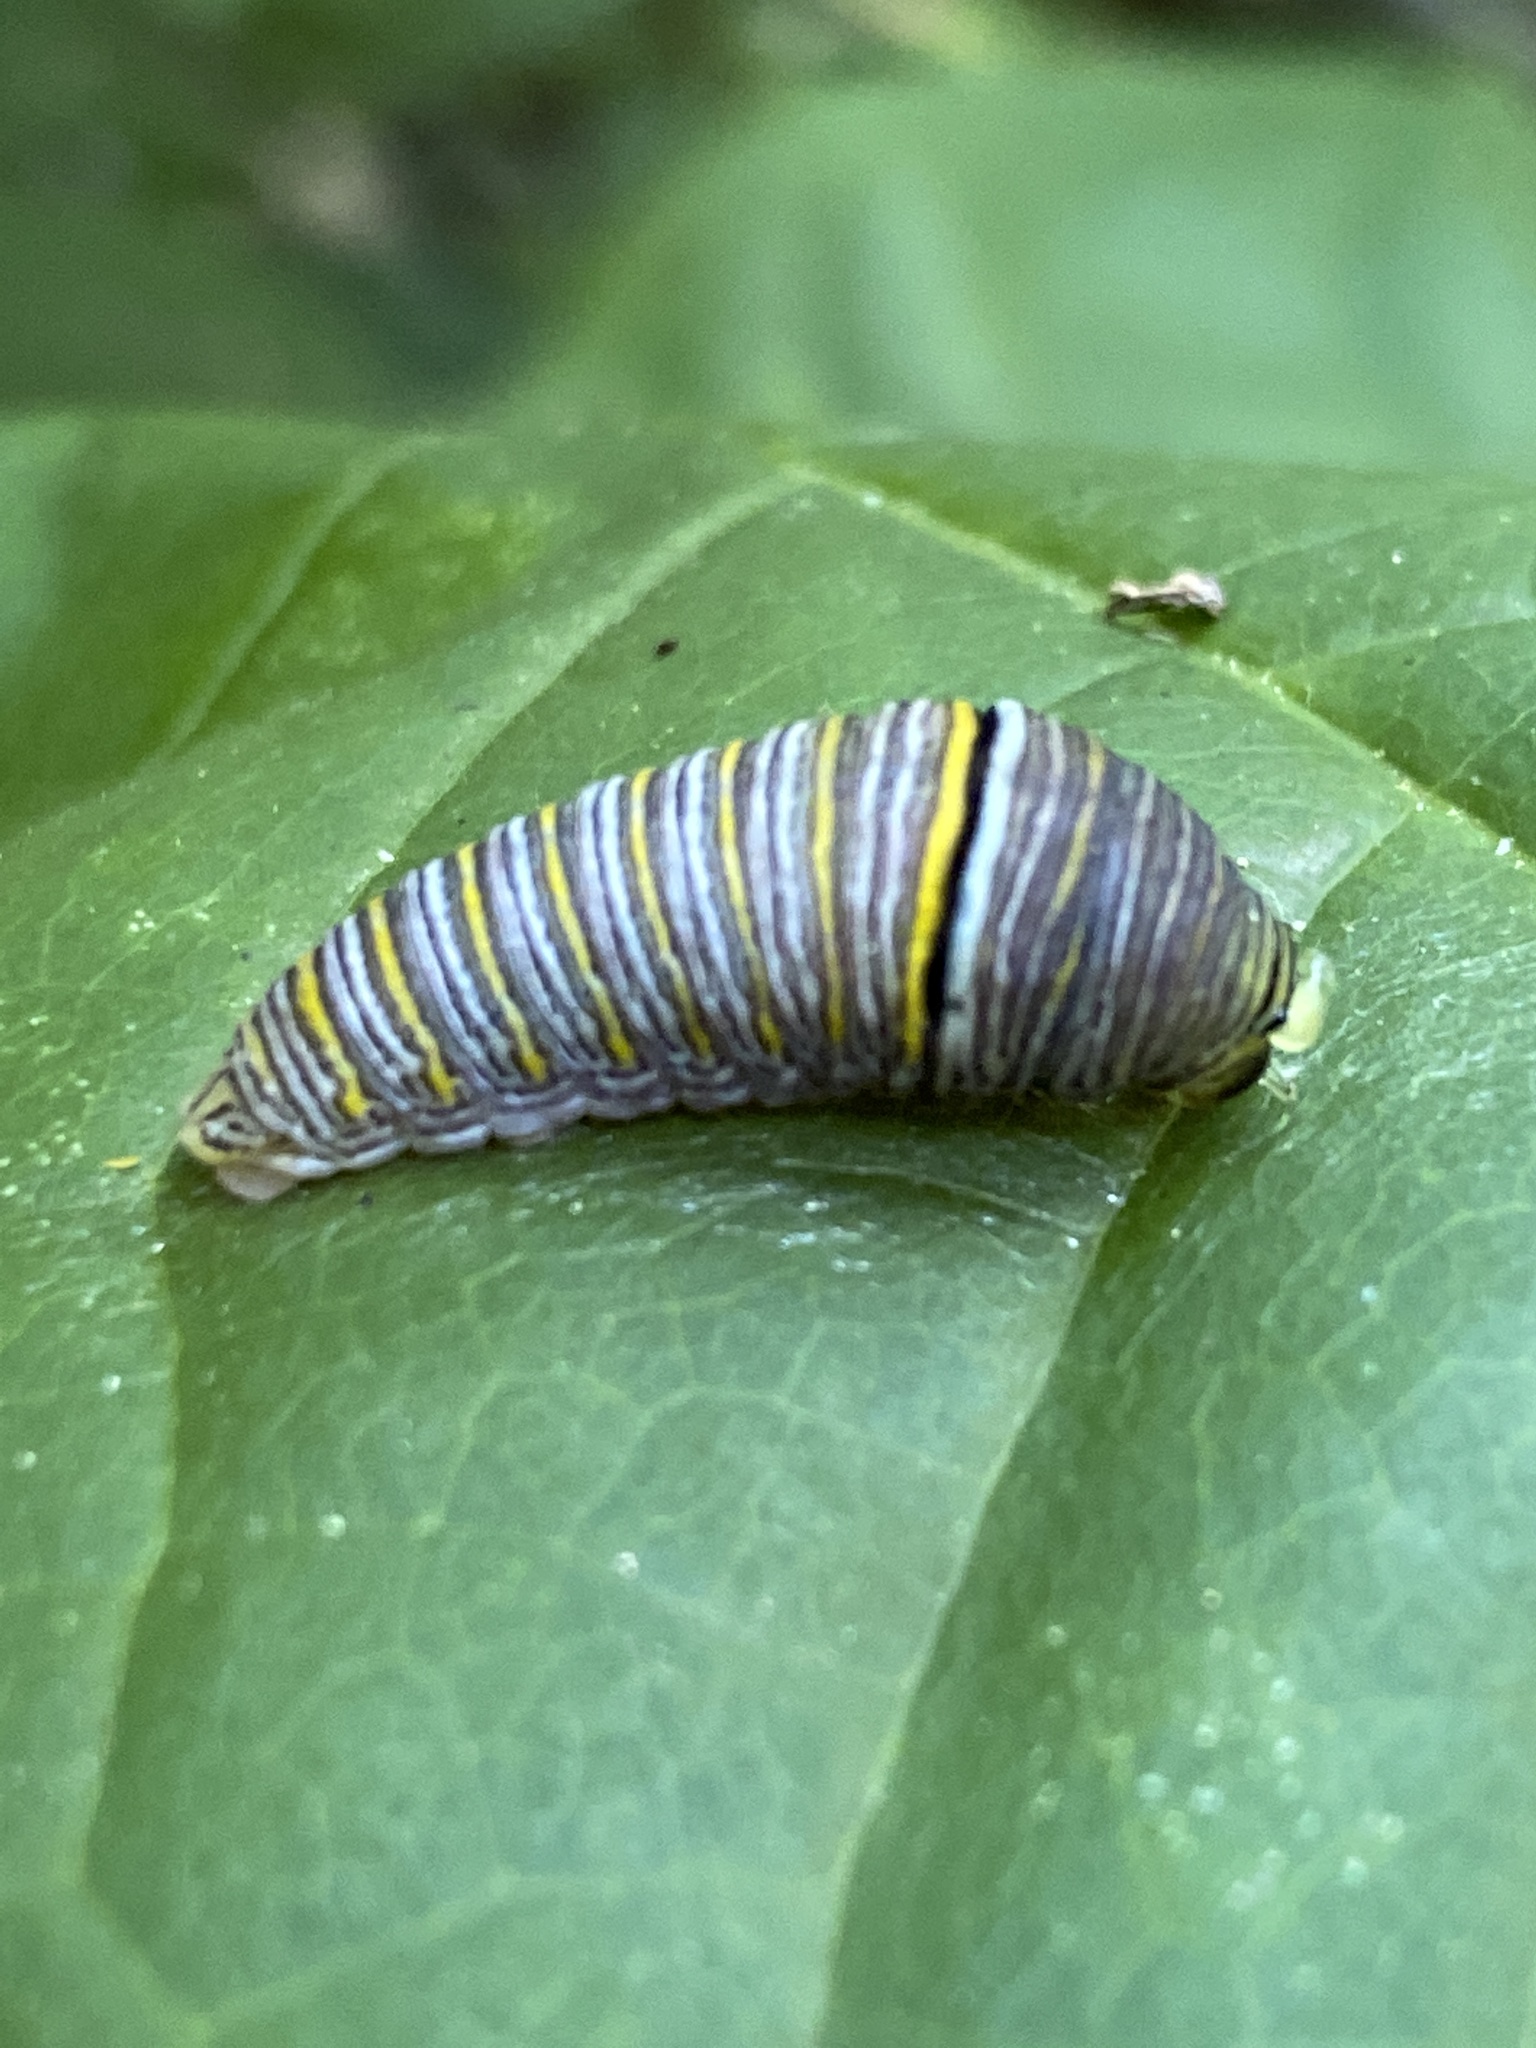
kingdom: Animalia
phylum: Arthropoda
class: Insecta
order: Lepidoptera
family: Papilionidae
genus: Protographium
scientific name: Protographium marcellus
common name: Zebra swallowtail
